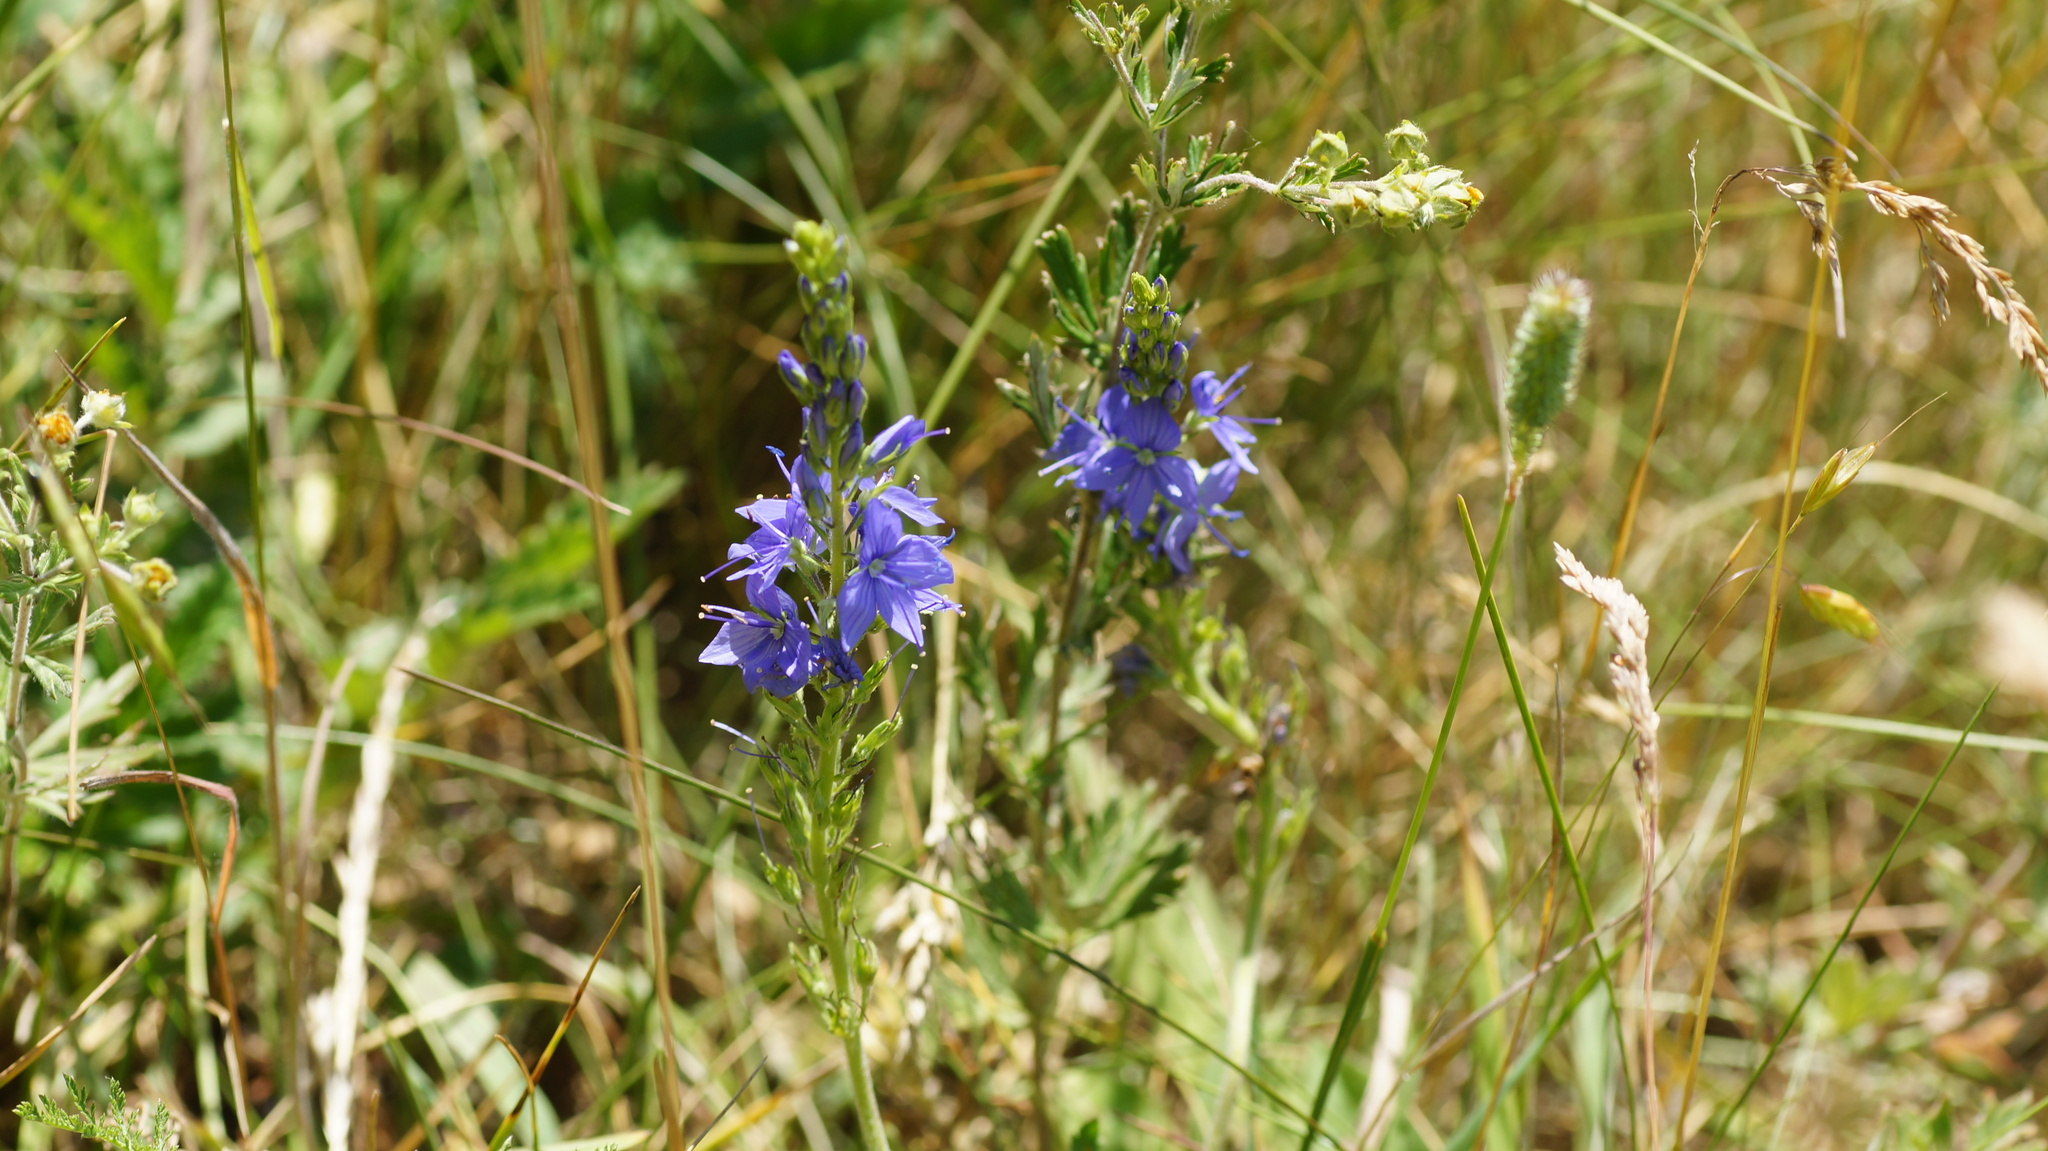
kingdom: Plantae
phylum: Tracheophyta
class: Magnoliopsida
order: Lamiales
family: Plantaginaceae
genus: Veronica
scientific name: Veronica teucrium
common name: Large speedwell
